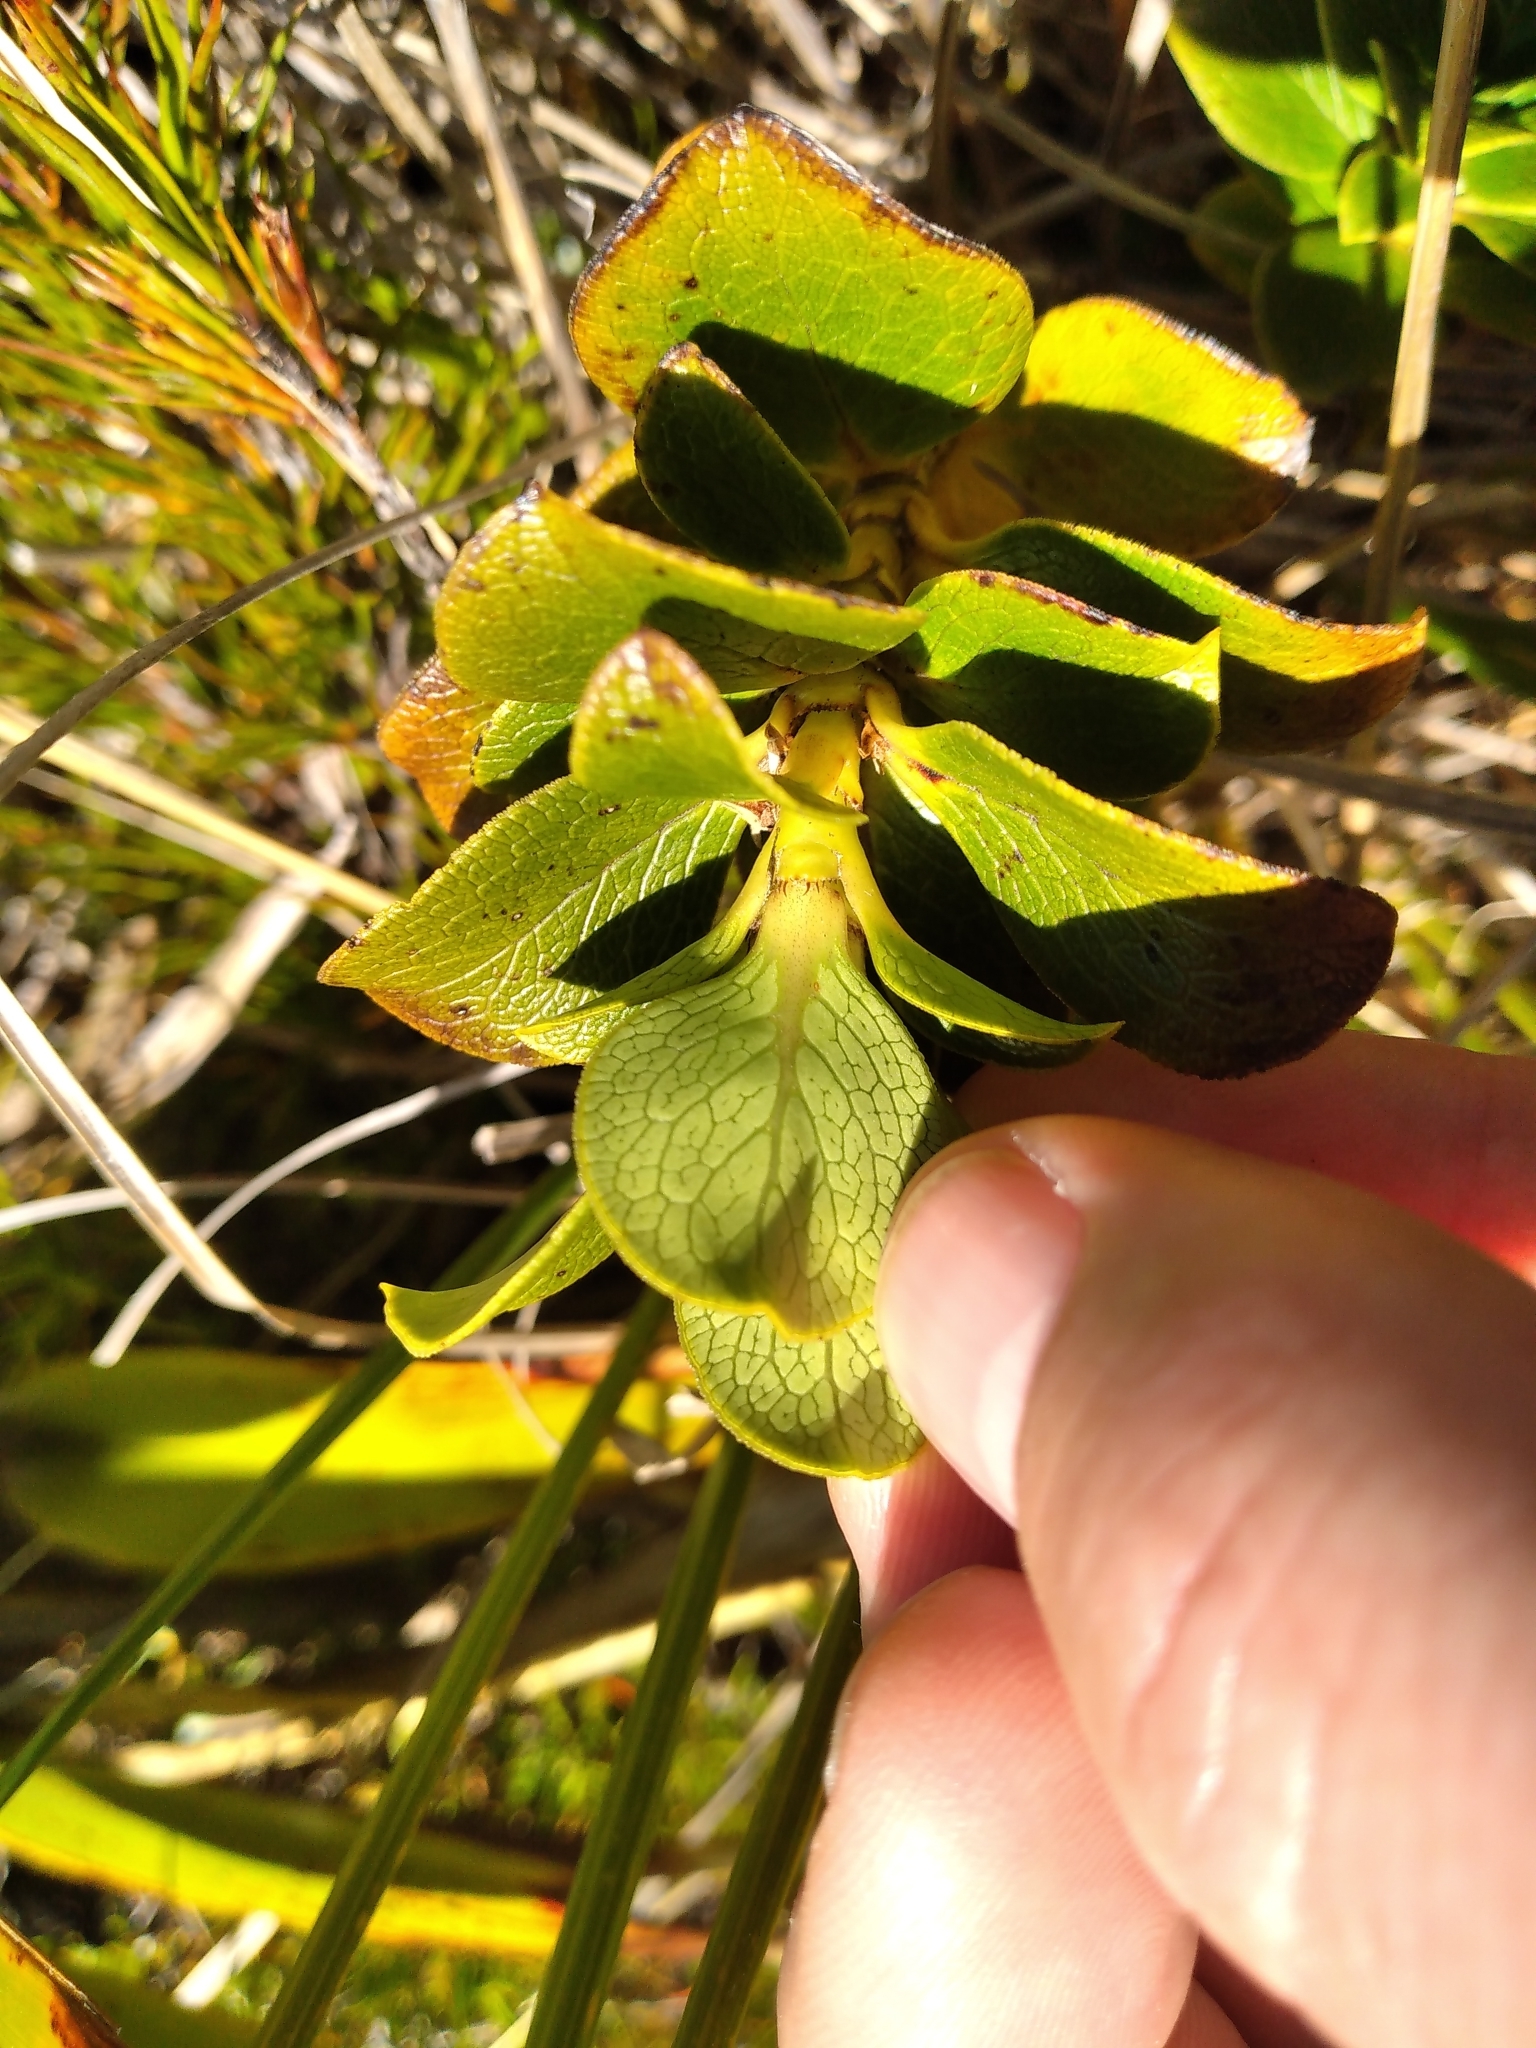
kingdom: Plantae
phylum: Tracheophyta
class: Magnoliopsida
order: Gentianales
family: Rubiaceae
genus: Coprosma
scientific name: Coprosma serrulata
